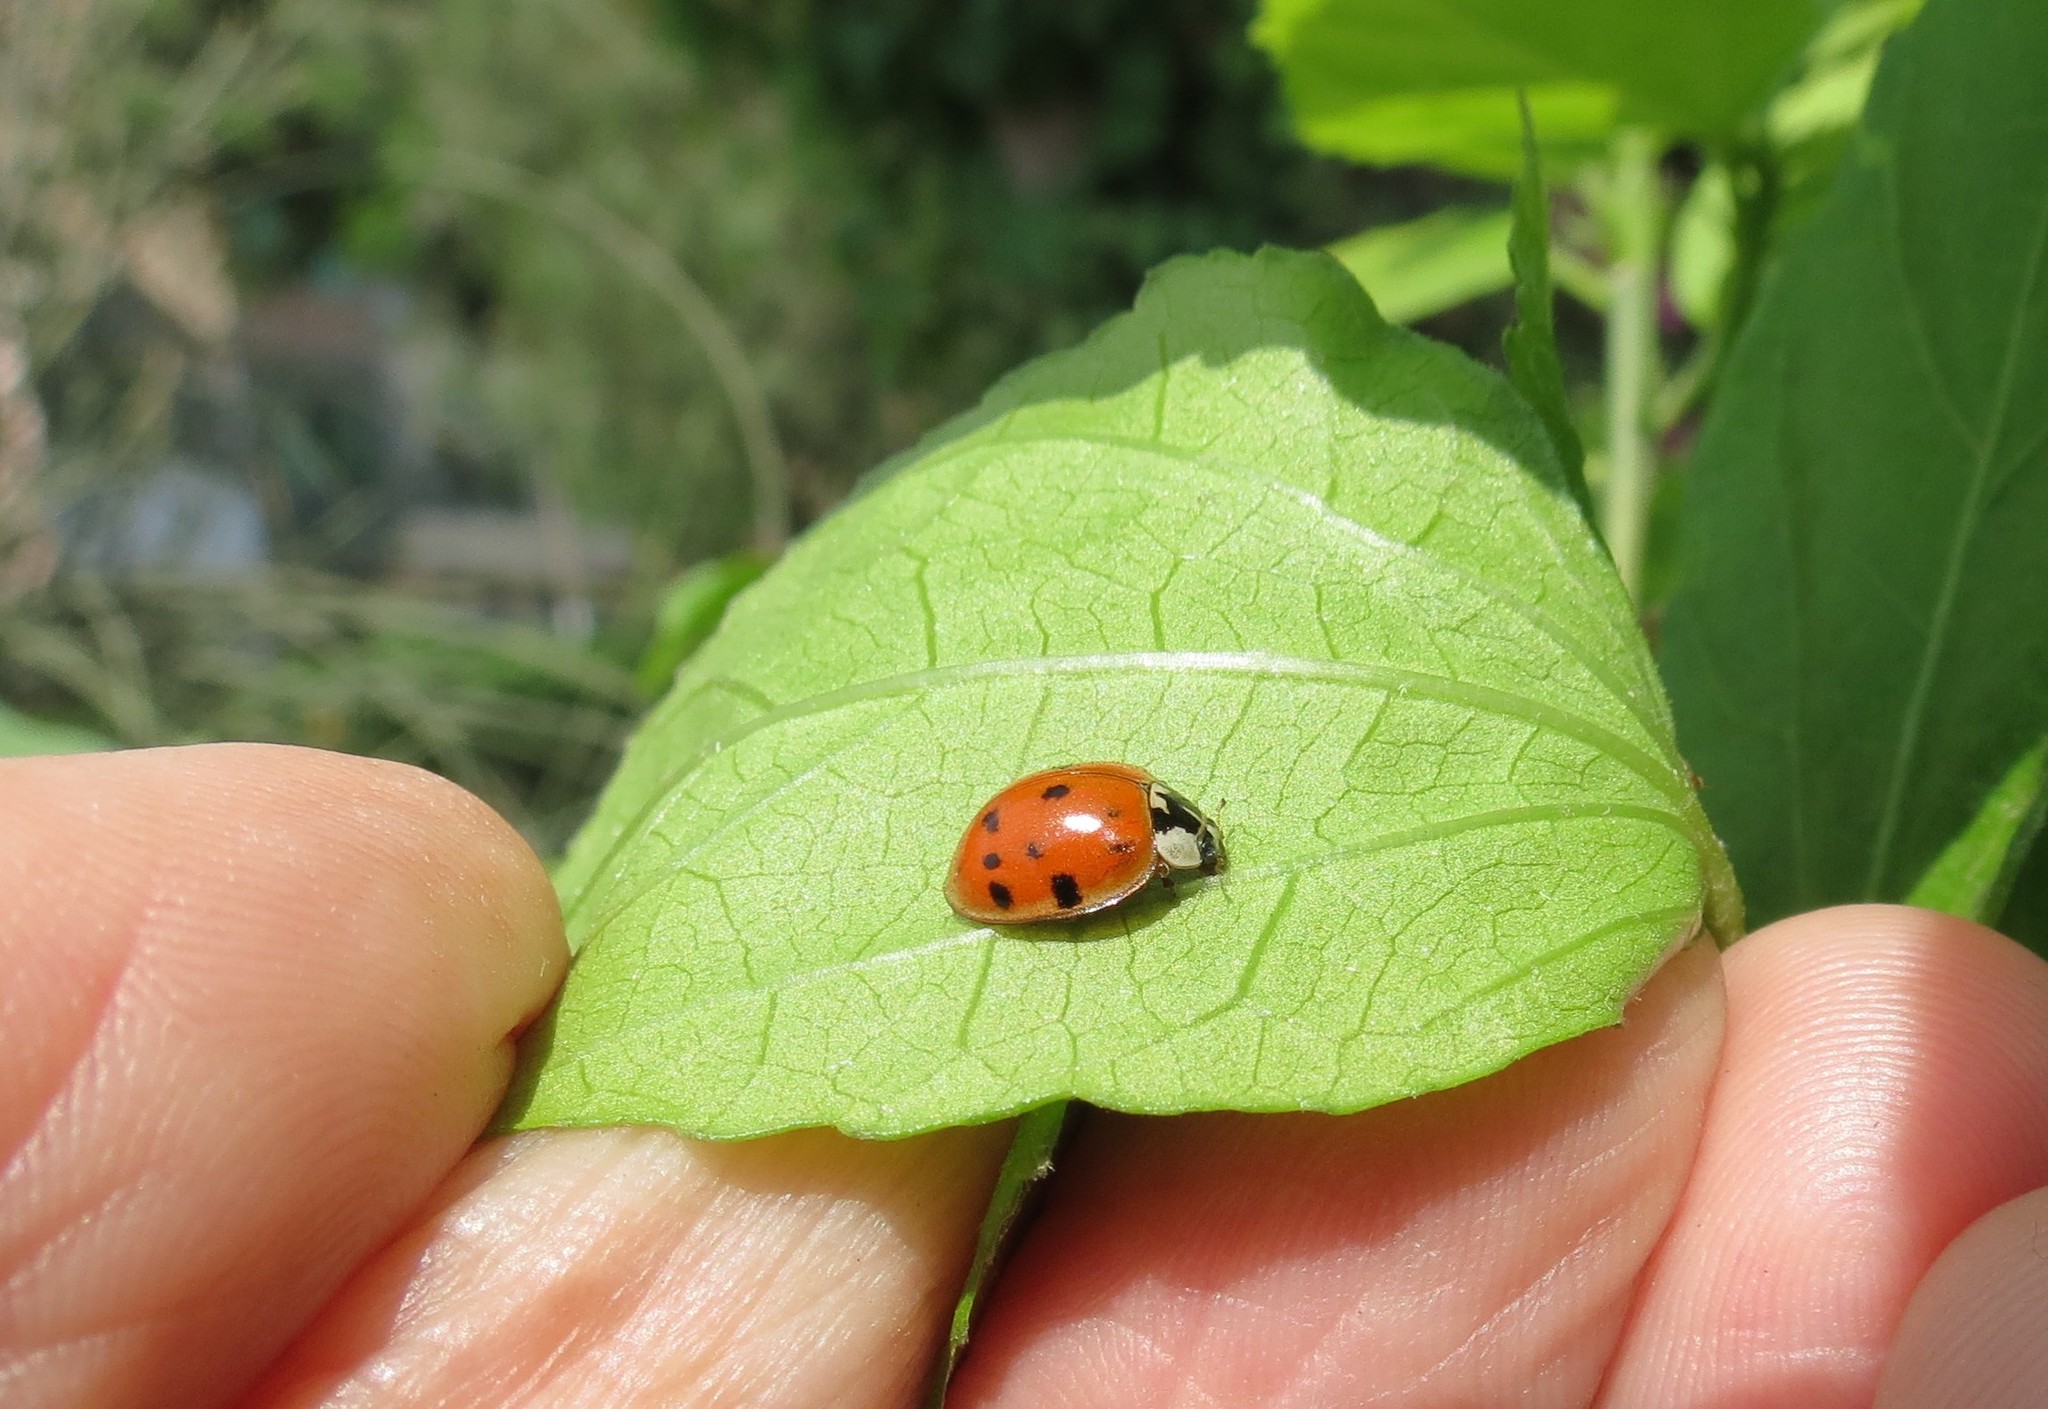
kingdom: Animalia
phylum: Arthropoda
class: Insecta
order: Coleoptera
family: Coccinellidae
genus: Harmonia
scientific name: Harmonia axyridis
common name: Harlequin ladybird
